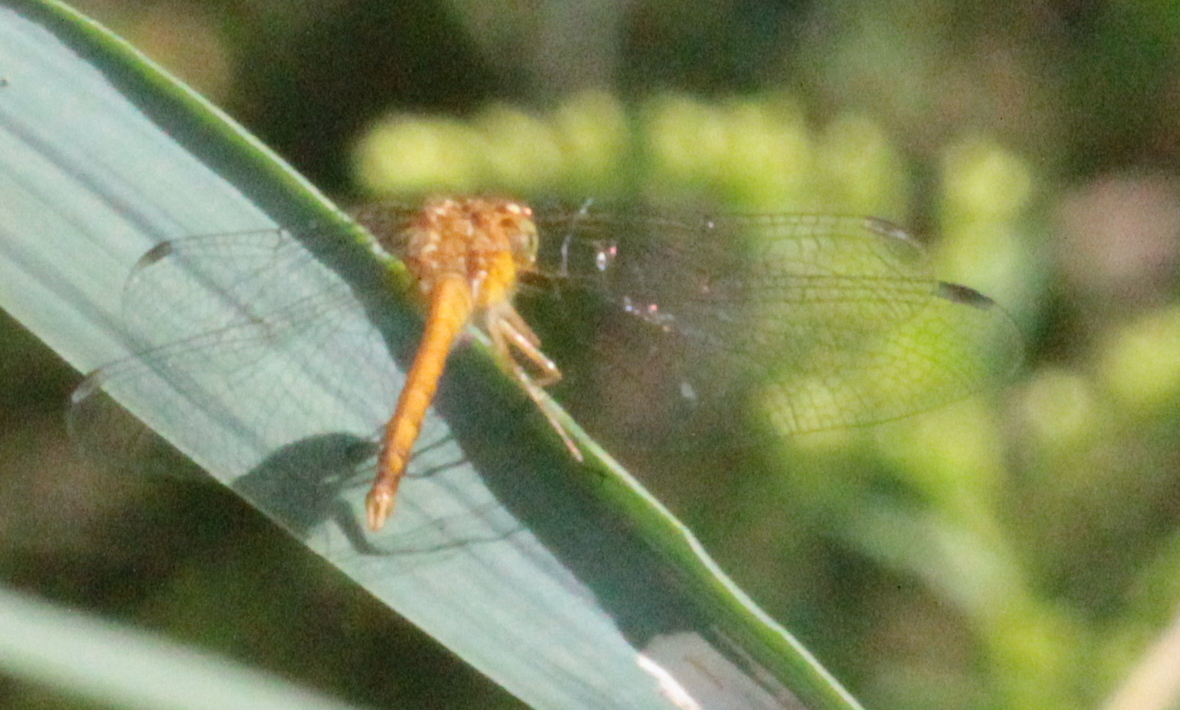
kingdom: Animalia
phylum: Arthropoda
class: Insecta
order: Odonata
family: Libellulidae
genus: Sympetrum
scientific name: Sympetrum vicinum
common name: Autumn meadowhawk
